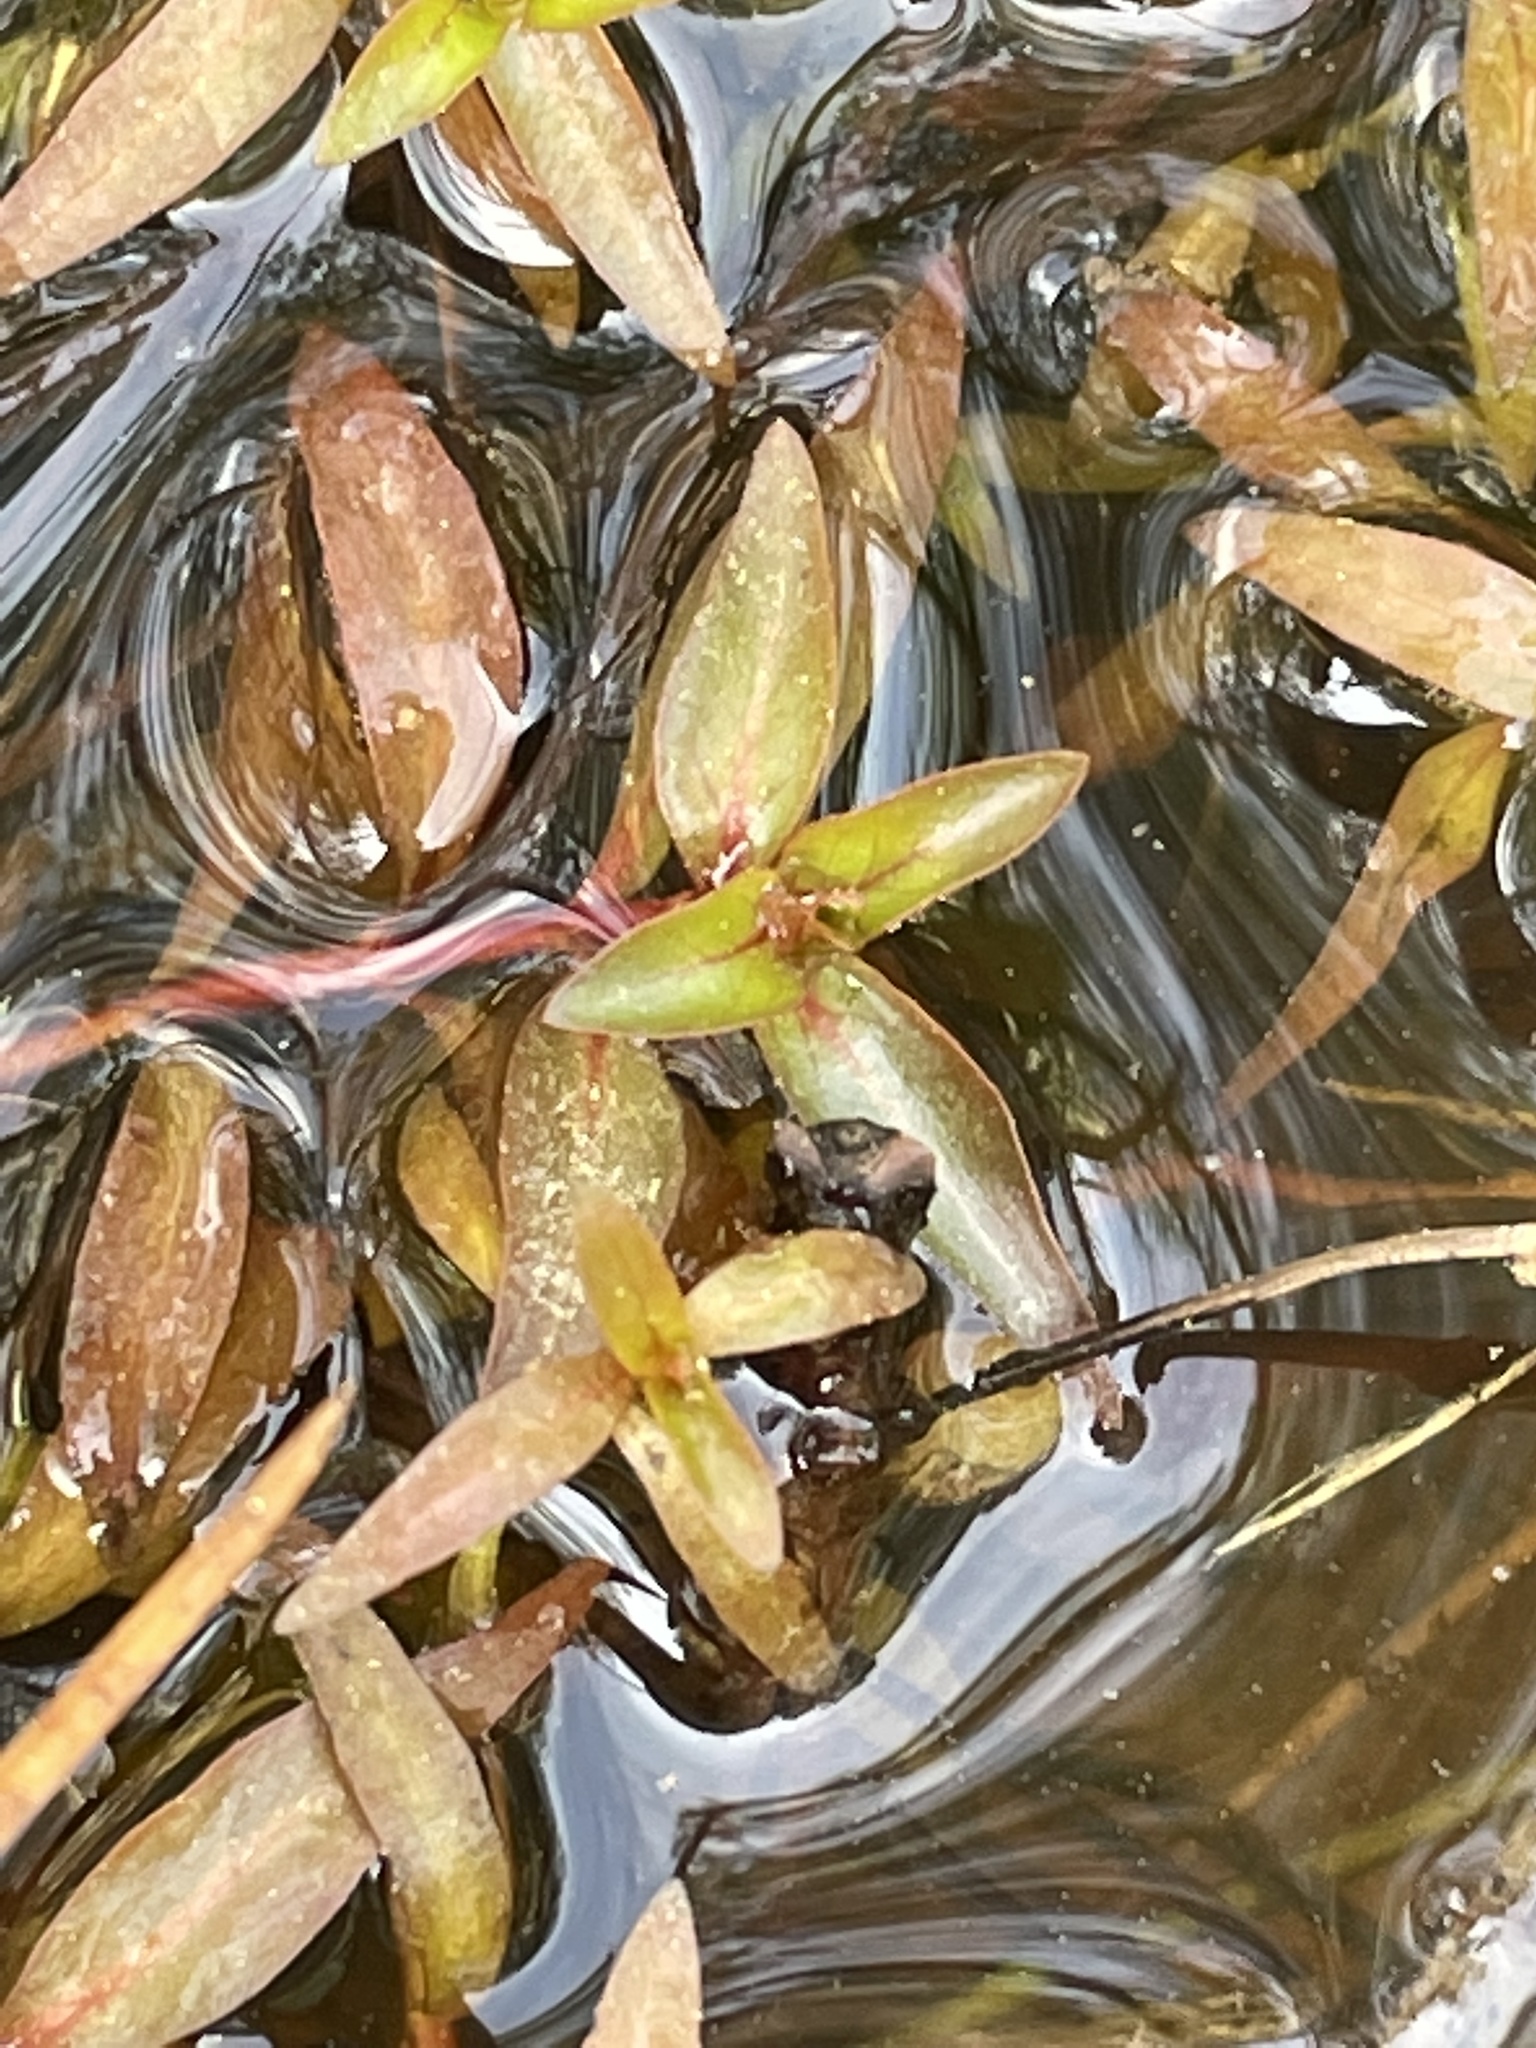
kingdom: Plantae
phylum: Tracheophyta
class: Magnoliopsida
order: Myrtales
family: Onagraceae
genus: Ludwigia
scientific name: Ludwigia palustris
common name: Hampshire-purslane
